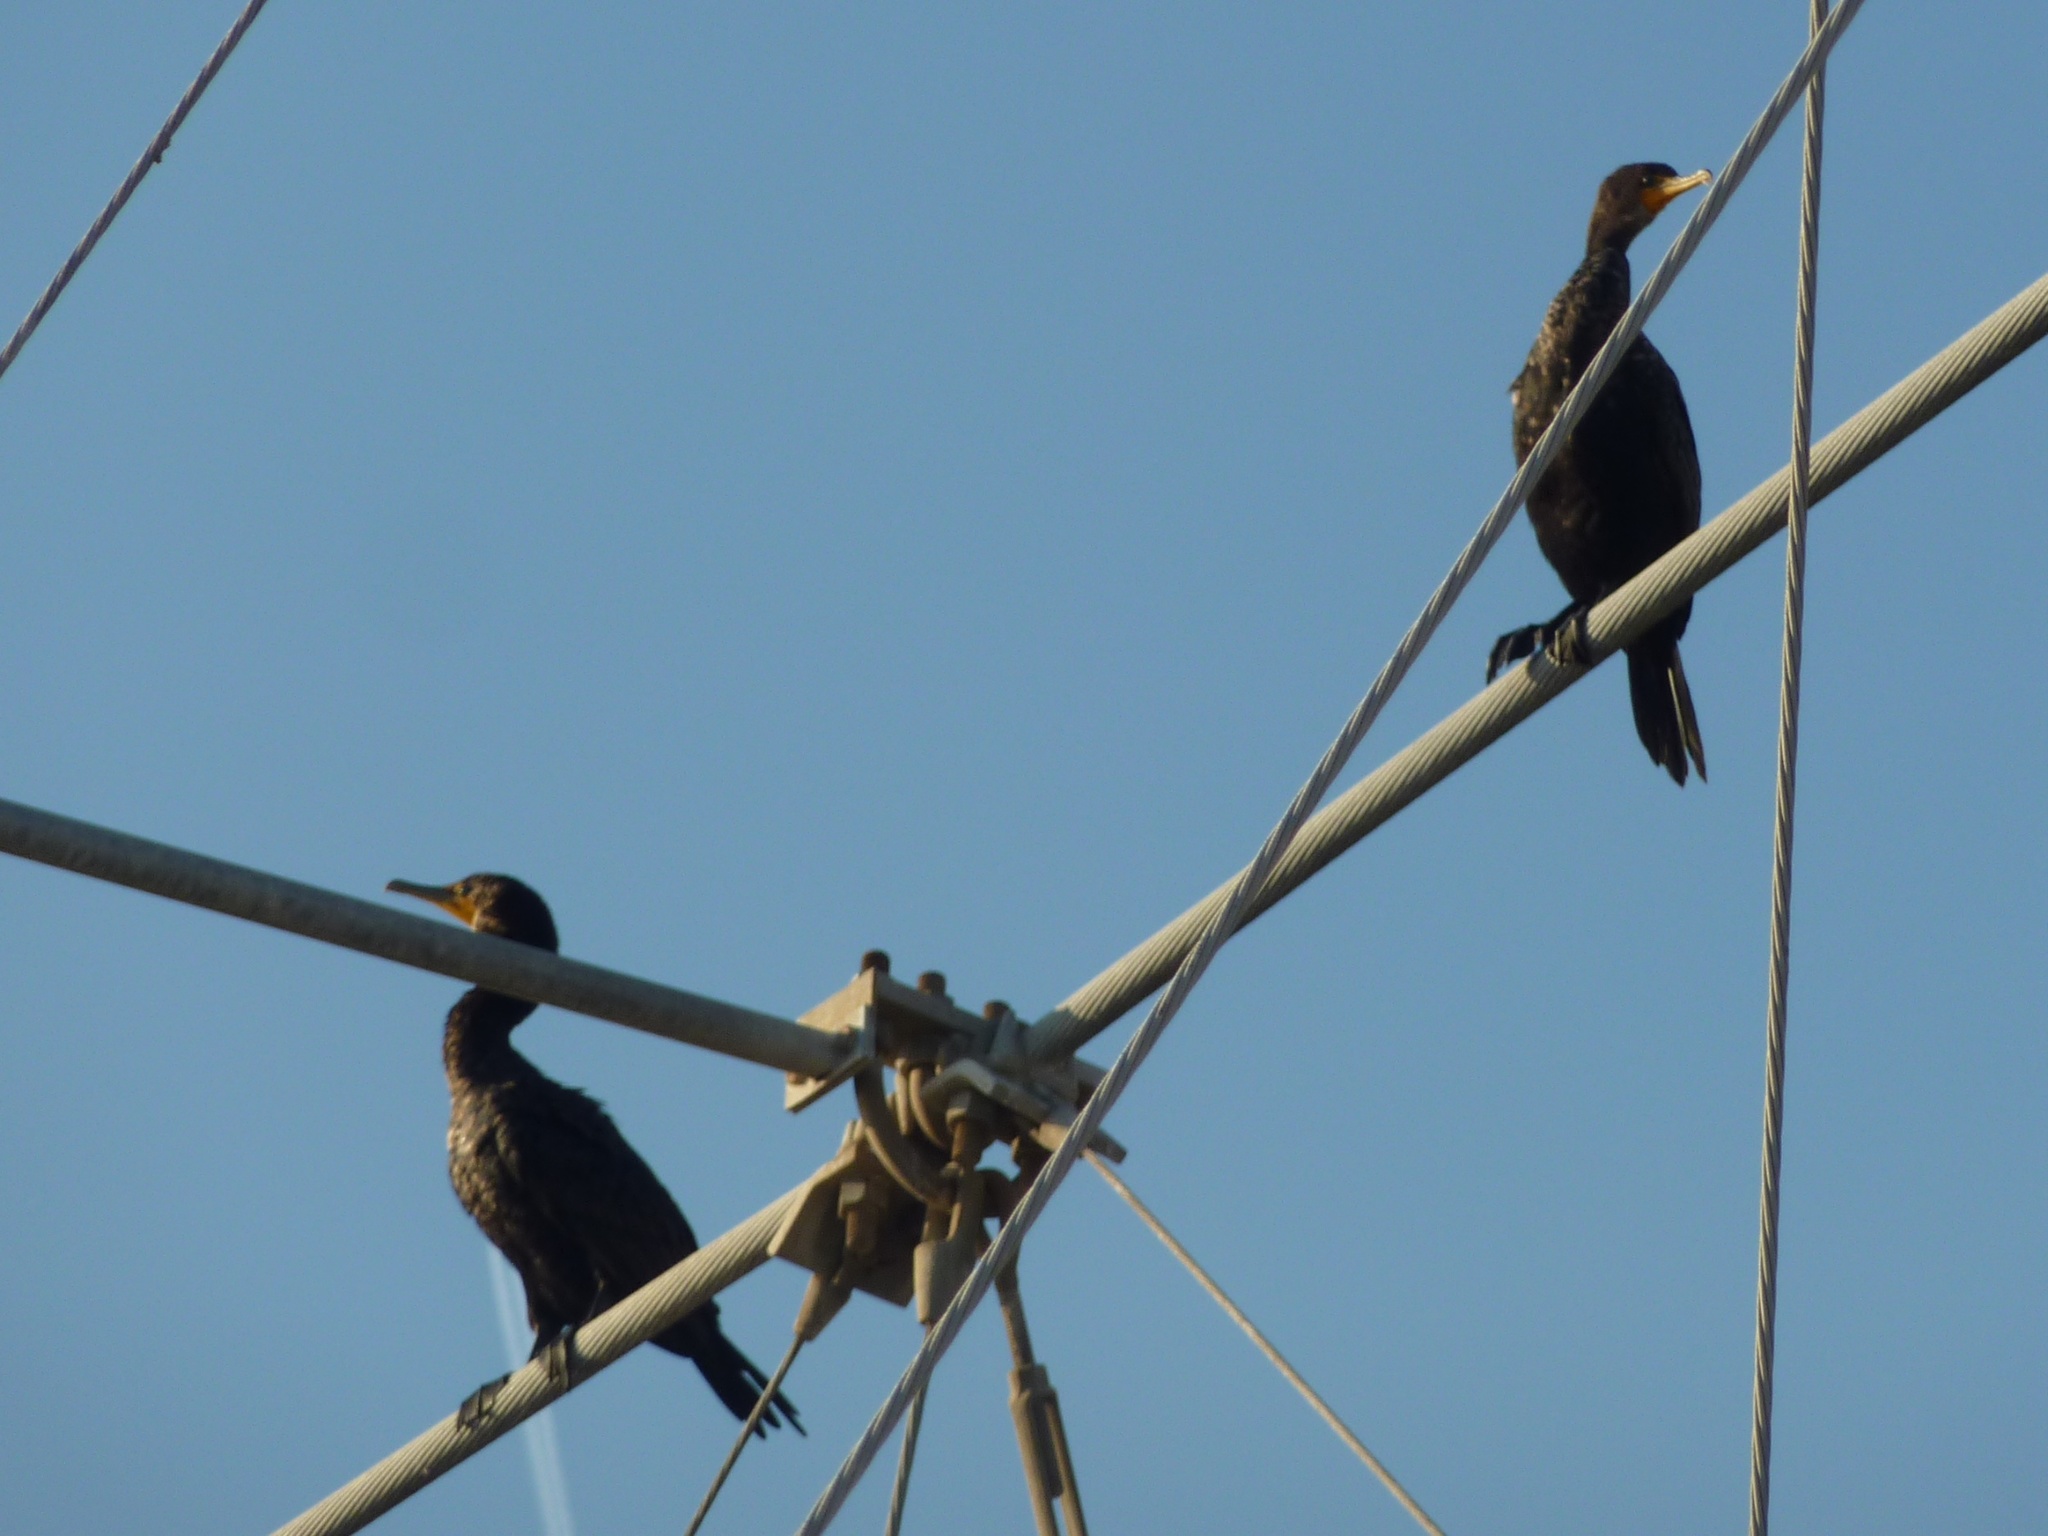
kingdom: Animalia
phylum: Chordata
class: Aves
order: Suliformes
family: Phalacrocoracidae
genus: Phalacrocorax
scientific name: Phalacrocorax auritus
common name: Double-crested cormorant
